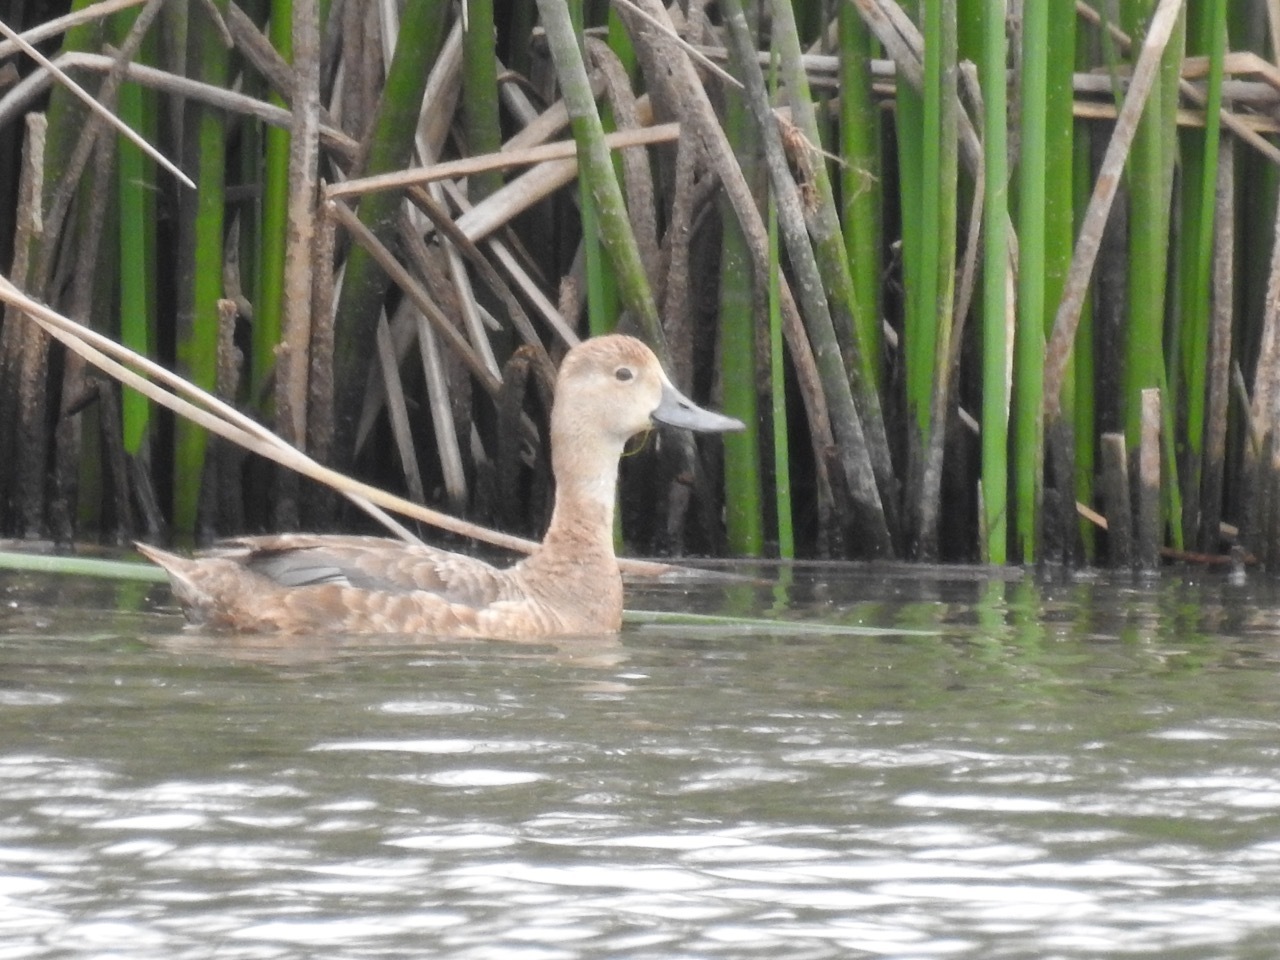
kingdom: Animalia
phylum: Chordata
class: Aves
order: Anseriformes
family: Anatidae
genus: Aythya
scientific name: Aythya americana
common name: Redhead
